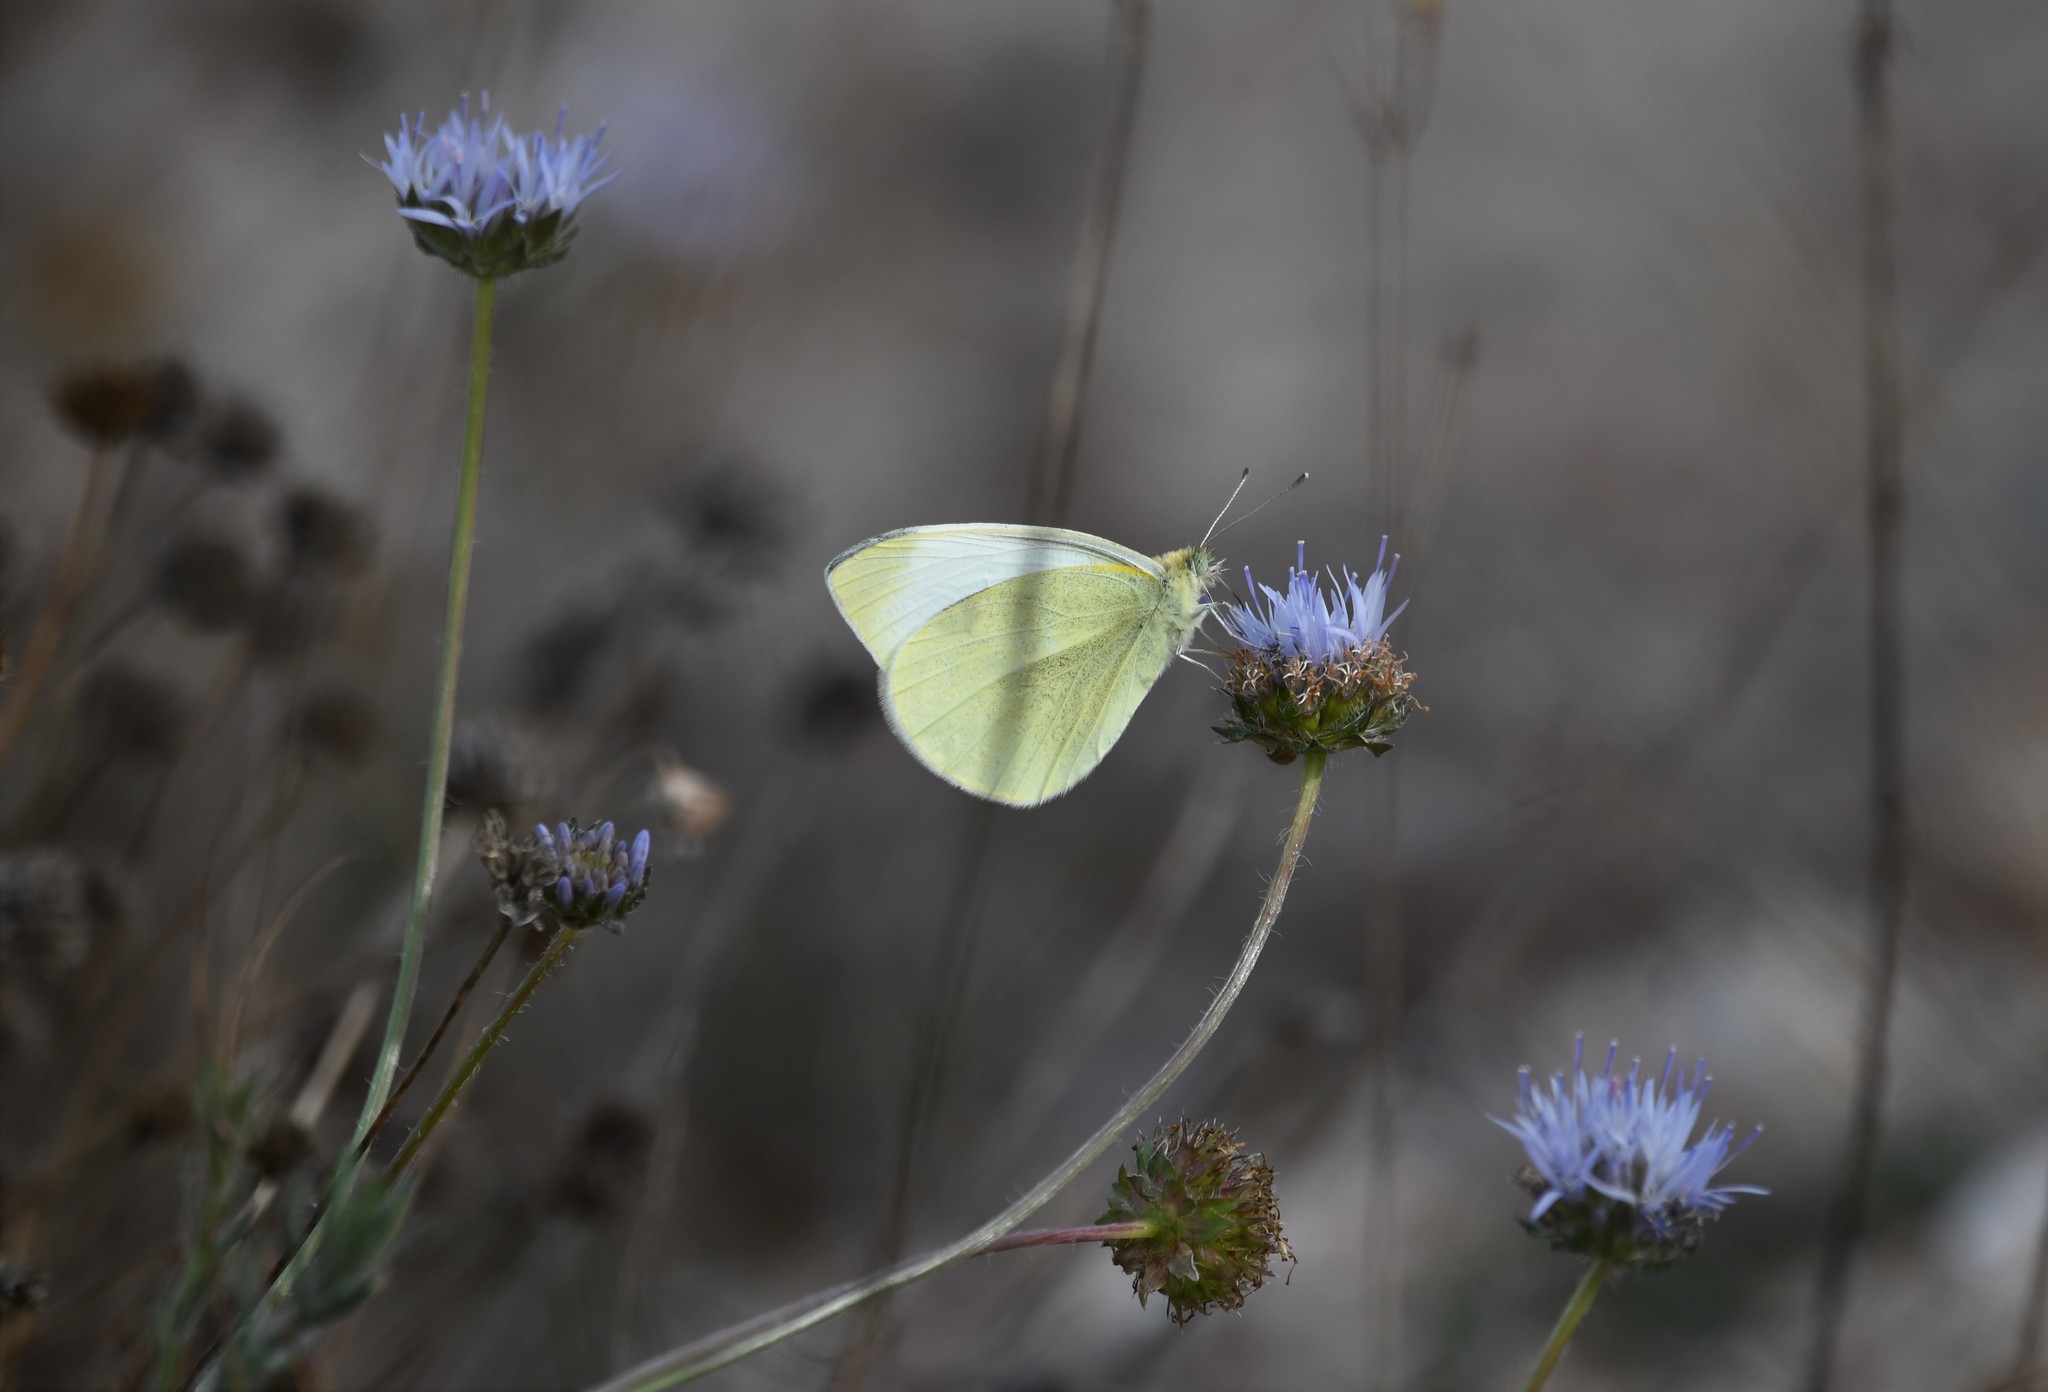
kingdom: Animalia
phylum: Arthropoda
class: Insecta
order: Lepidoptera
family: Pieridae
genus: Pieris
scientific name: Pieris rapae
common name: Small white
